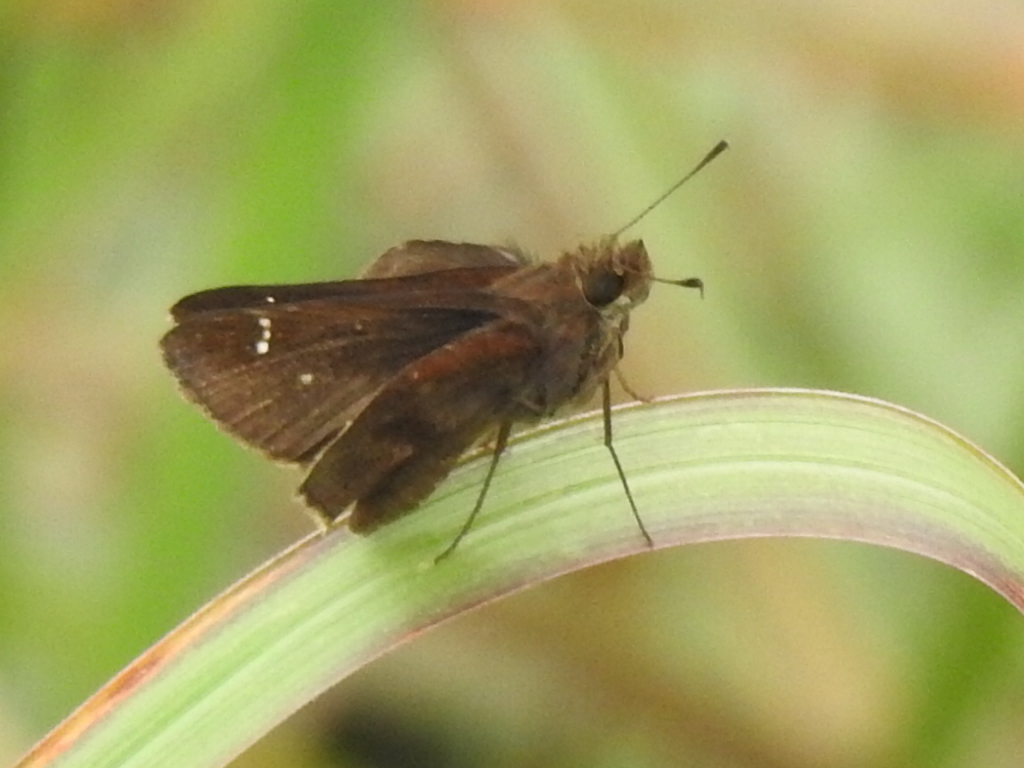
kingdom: Animalia
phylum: Arthropoda
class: Insecta
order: Lepidoptera
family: Hesperiidae
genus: Lerema
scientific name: Lerema accius
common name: Clouded skipper
